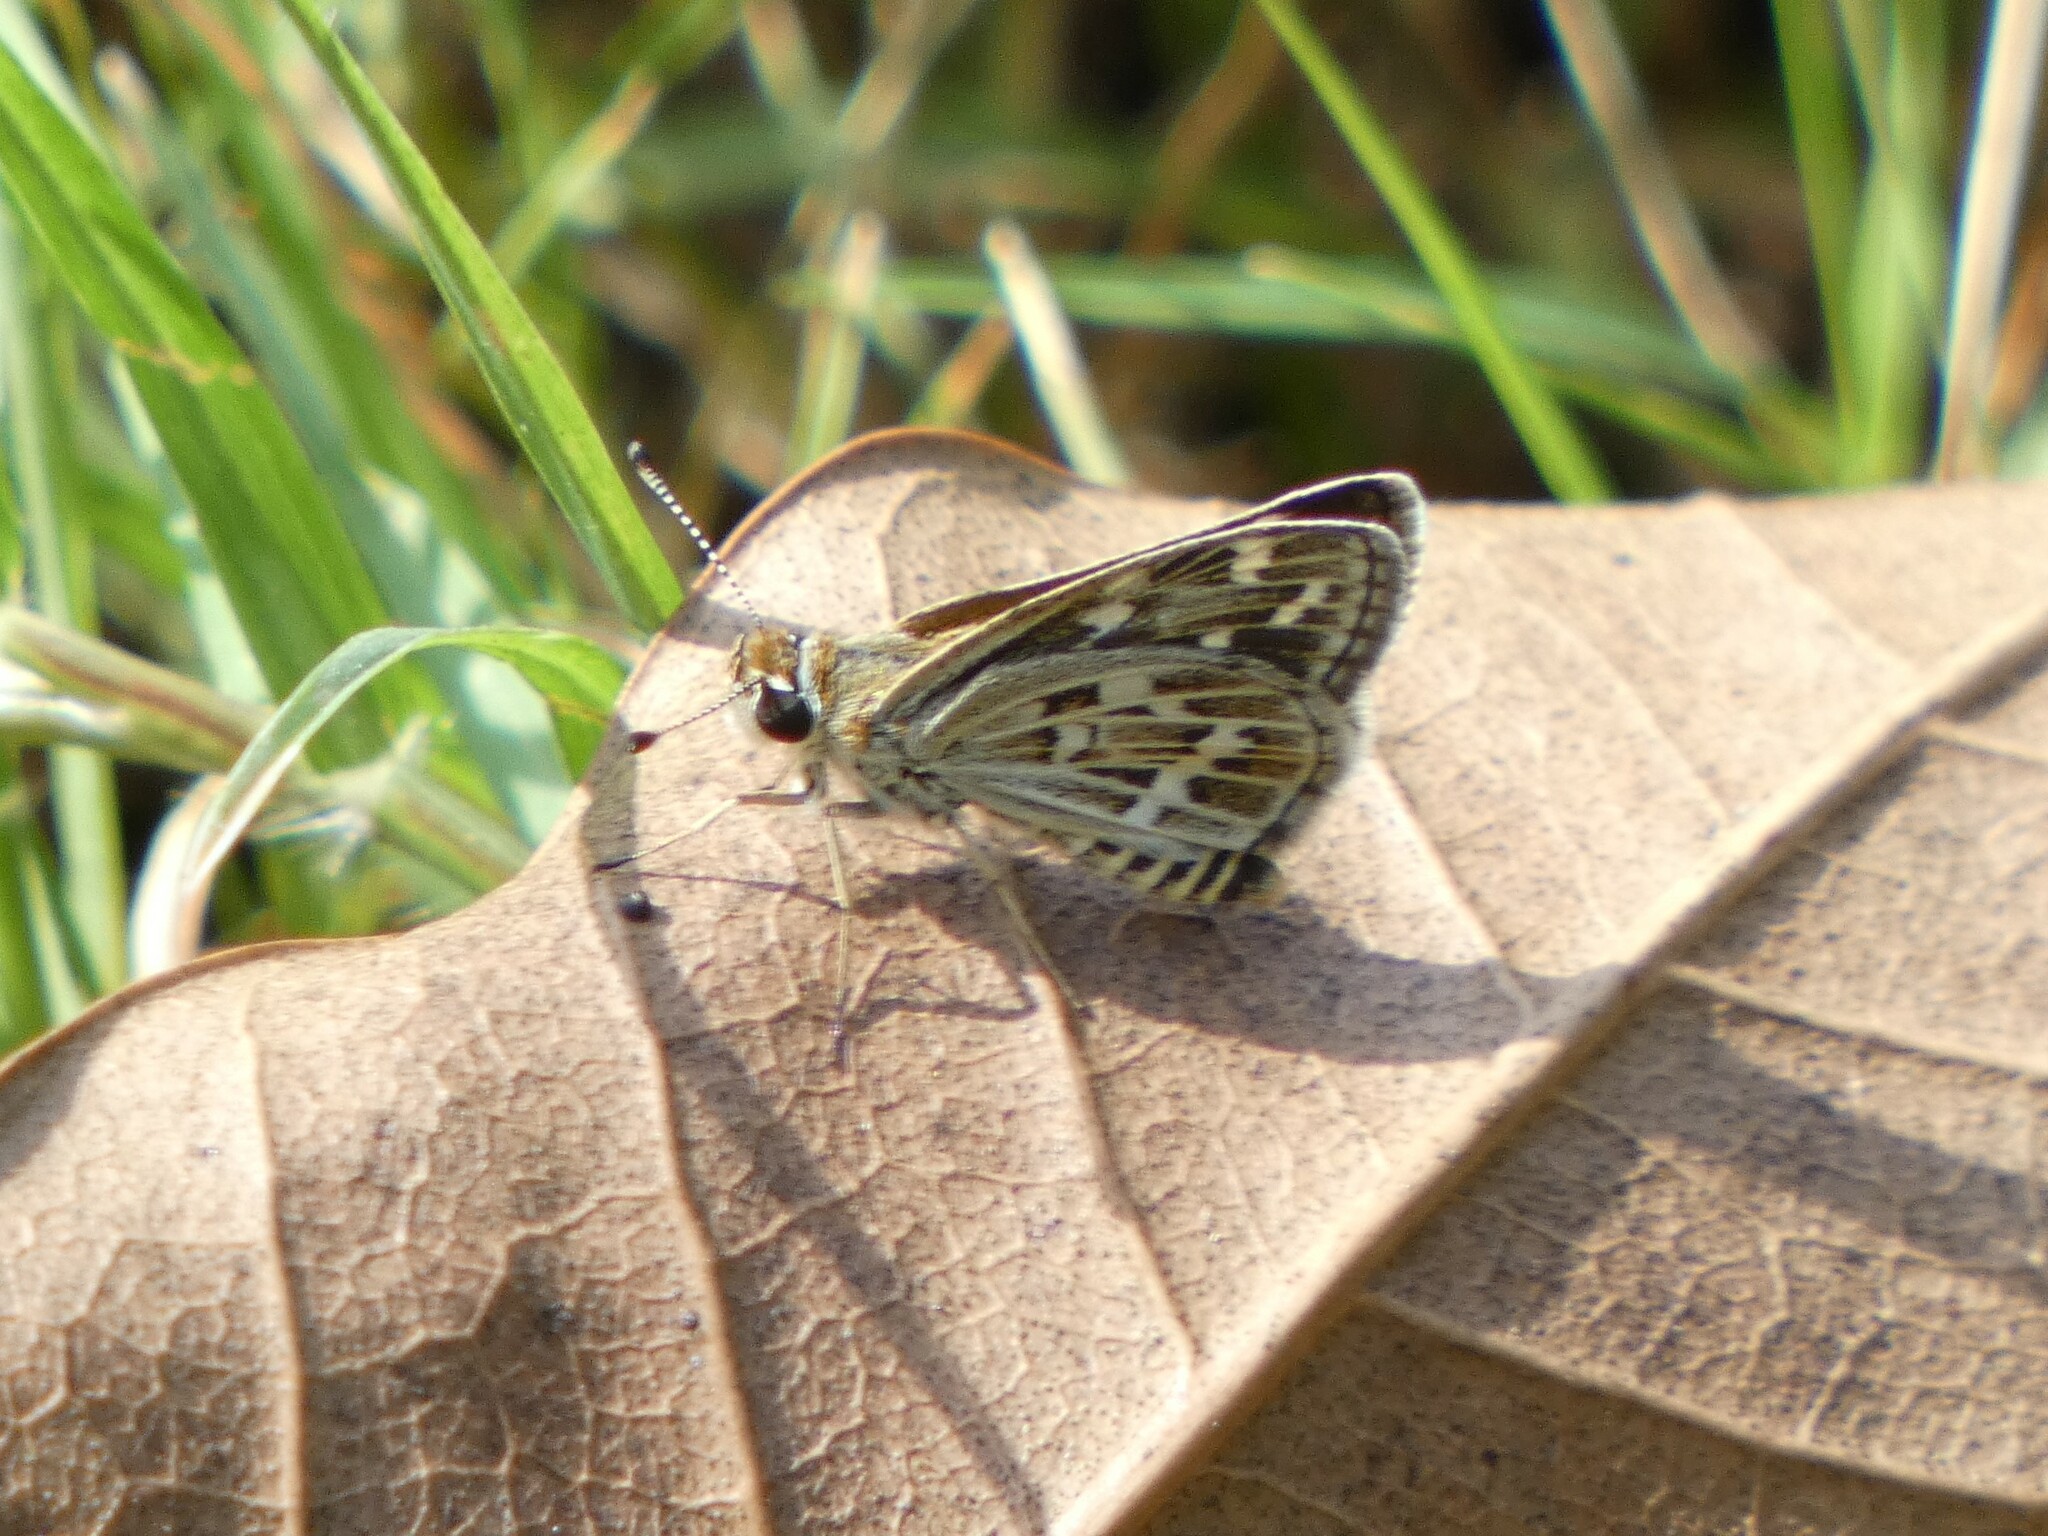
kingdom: Animalia
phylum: Arthropoda
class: Insecta
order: Lepidoptera
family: Hesperiidae
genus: Taractrocera
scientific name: Taractrocera maevius
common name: Common grass-dart
